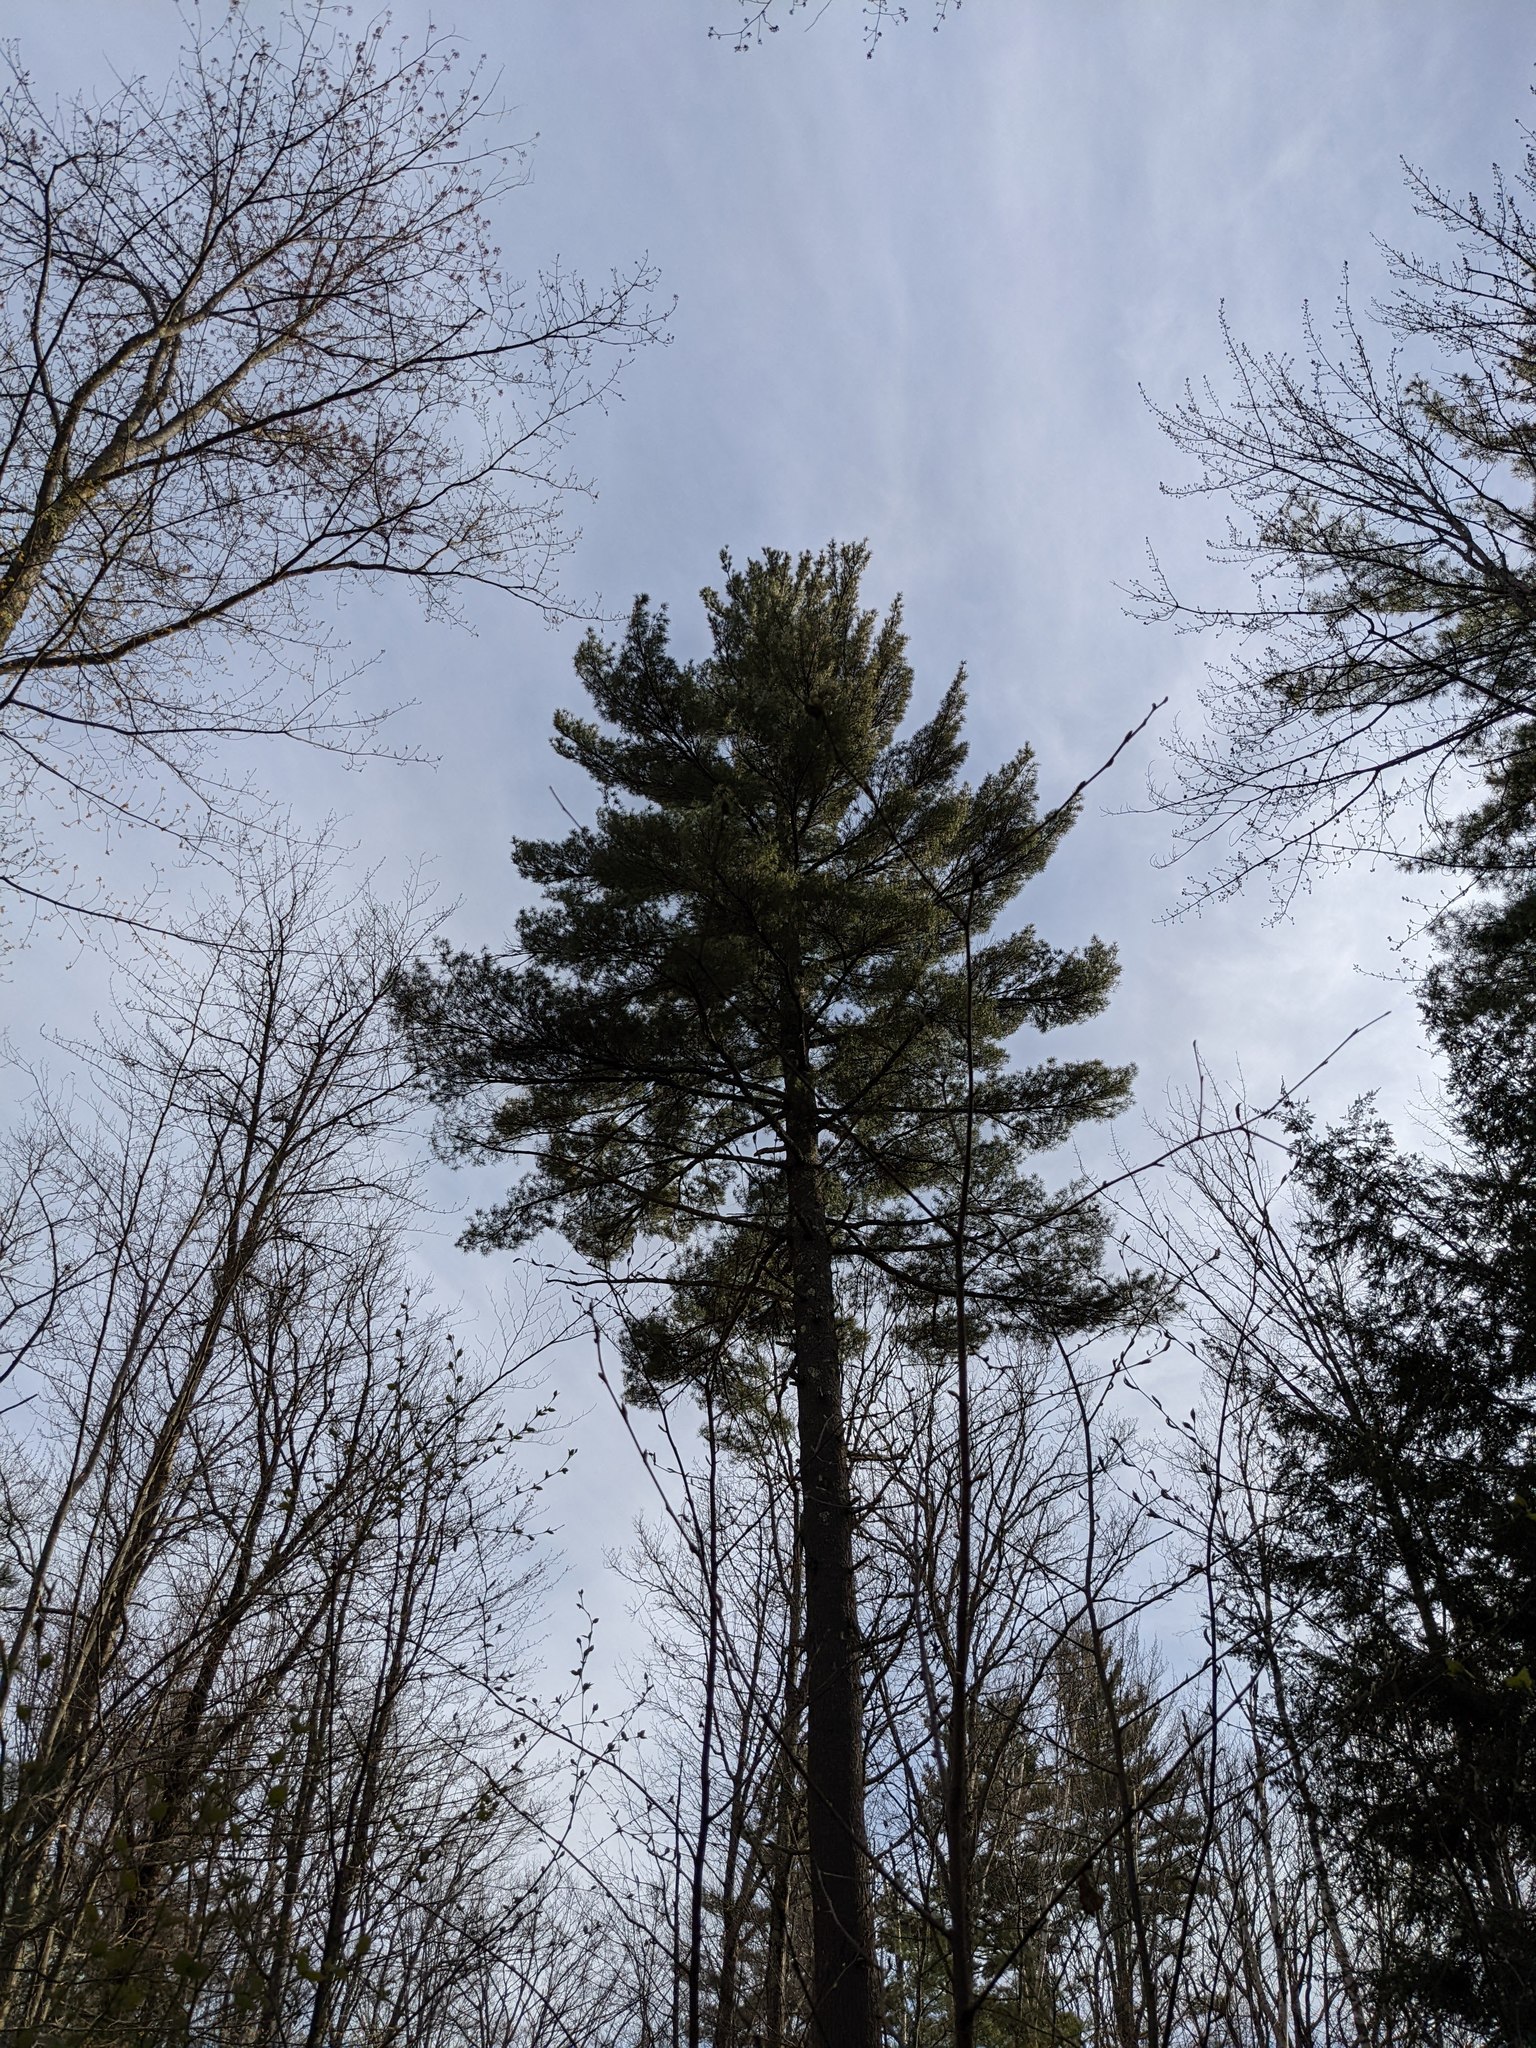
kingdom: Plantae
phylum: Tracheophyta
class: Pinopsida
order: Pinales
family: Pinaceae
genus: Pinus
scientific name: Pinus strobus
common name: Weymouth pine
